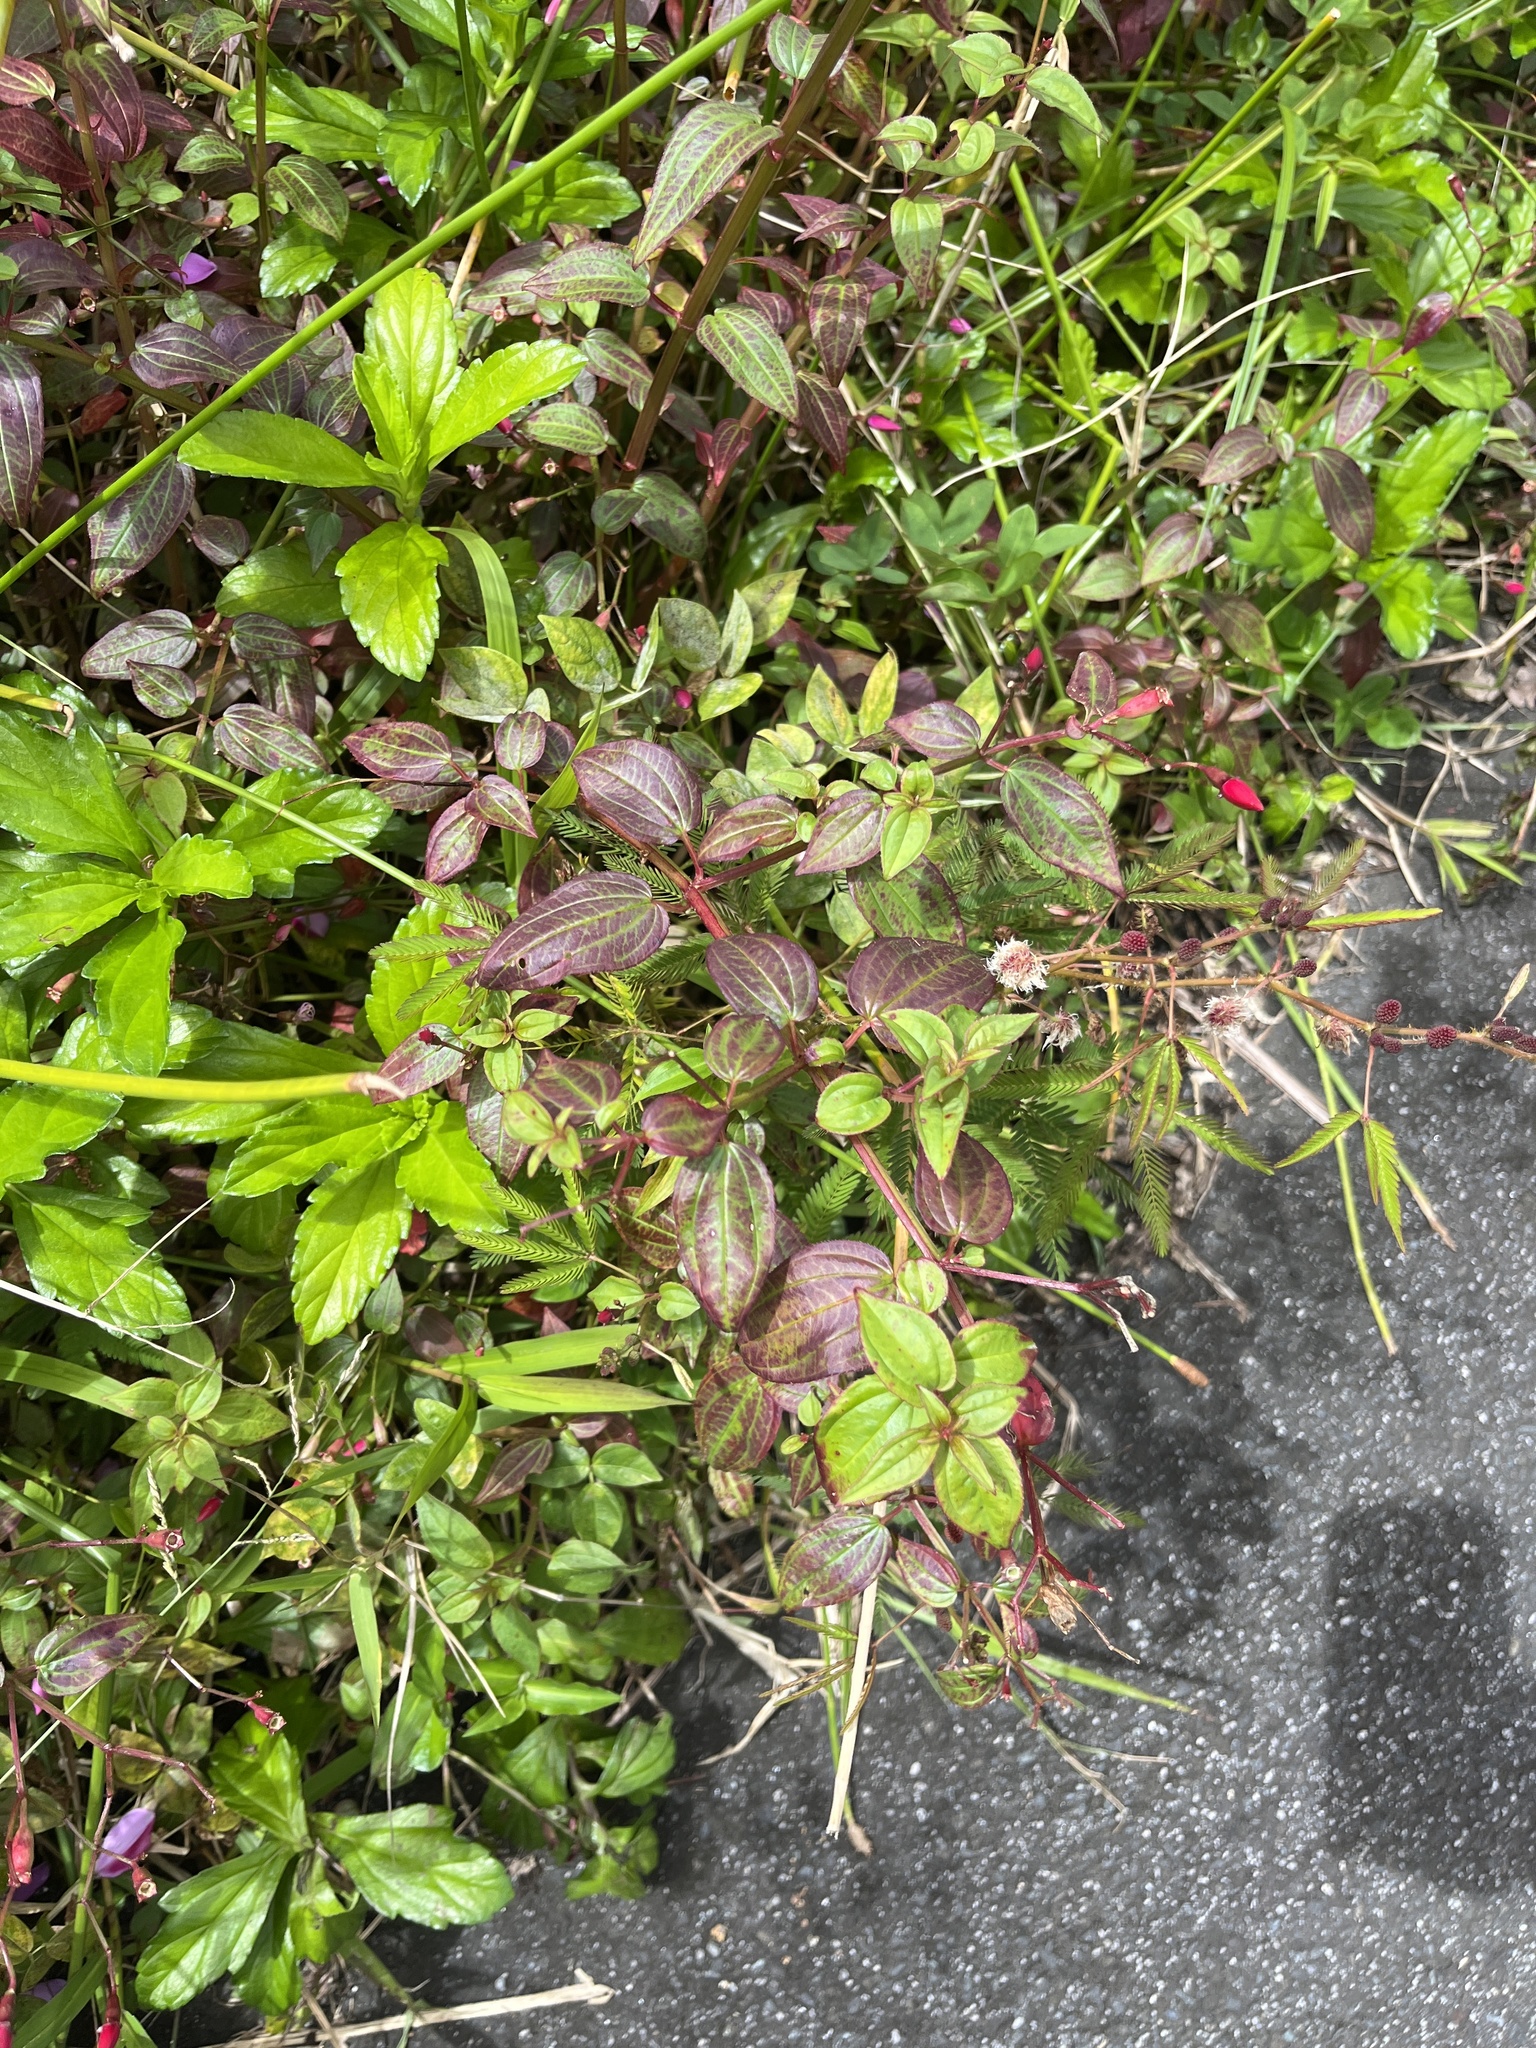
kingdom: Plantae
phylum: Tracheophyta
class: Magnoliopsida
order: Myrtales
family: Melastomataceae
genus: Nepsera
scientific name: Nepsera aquatica
